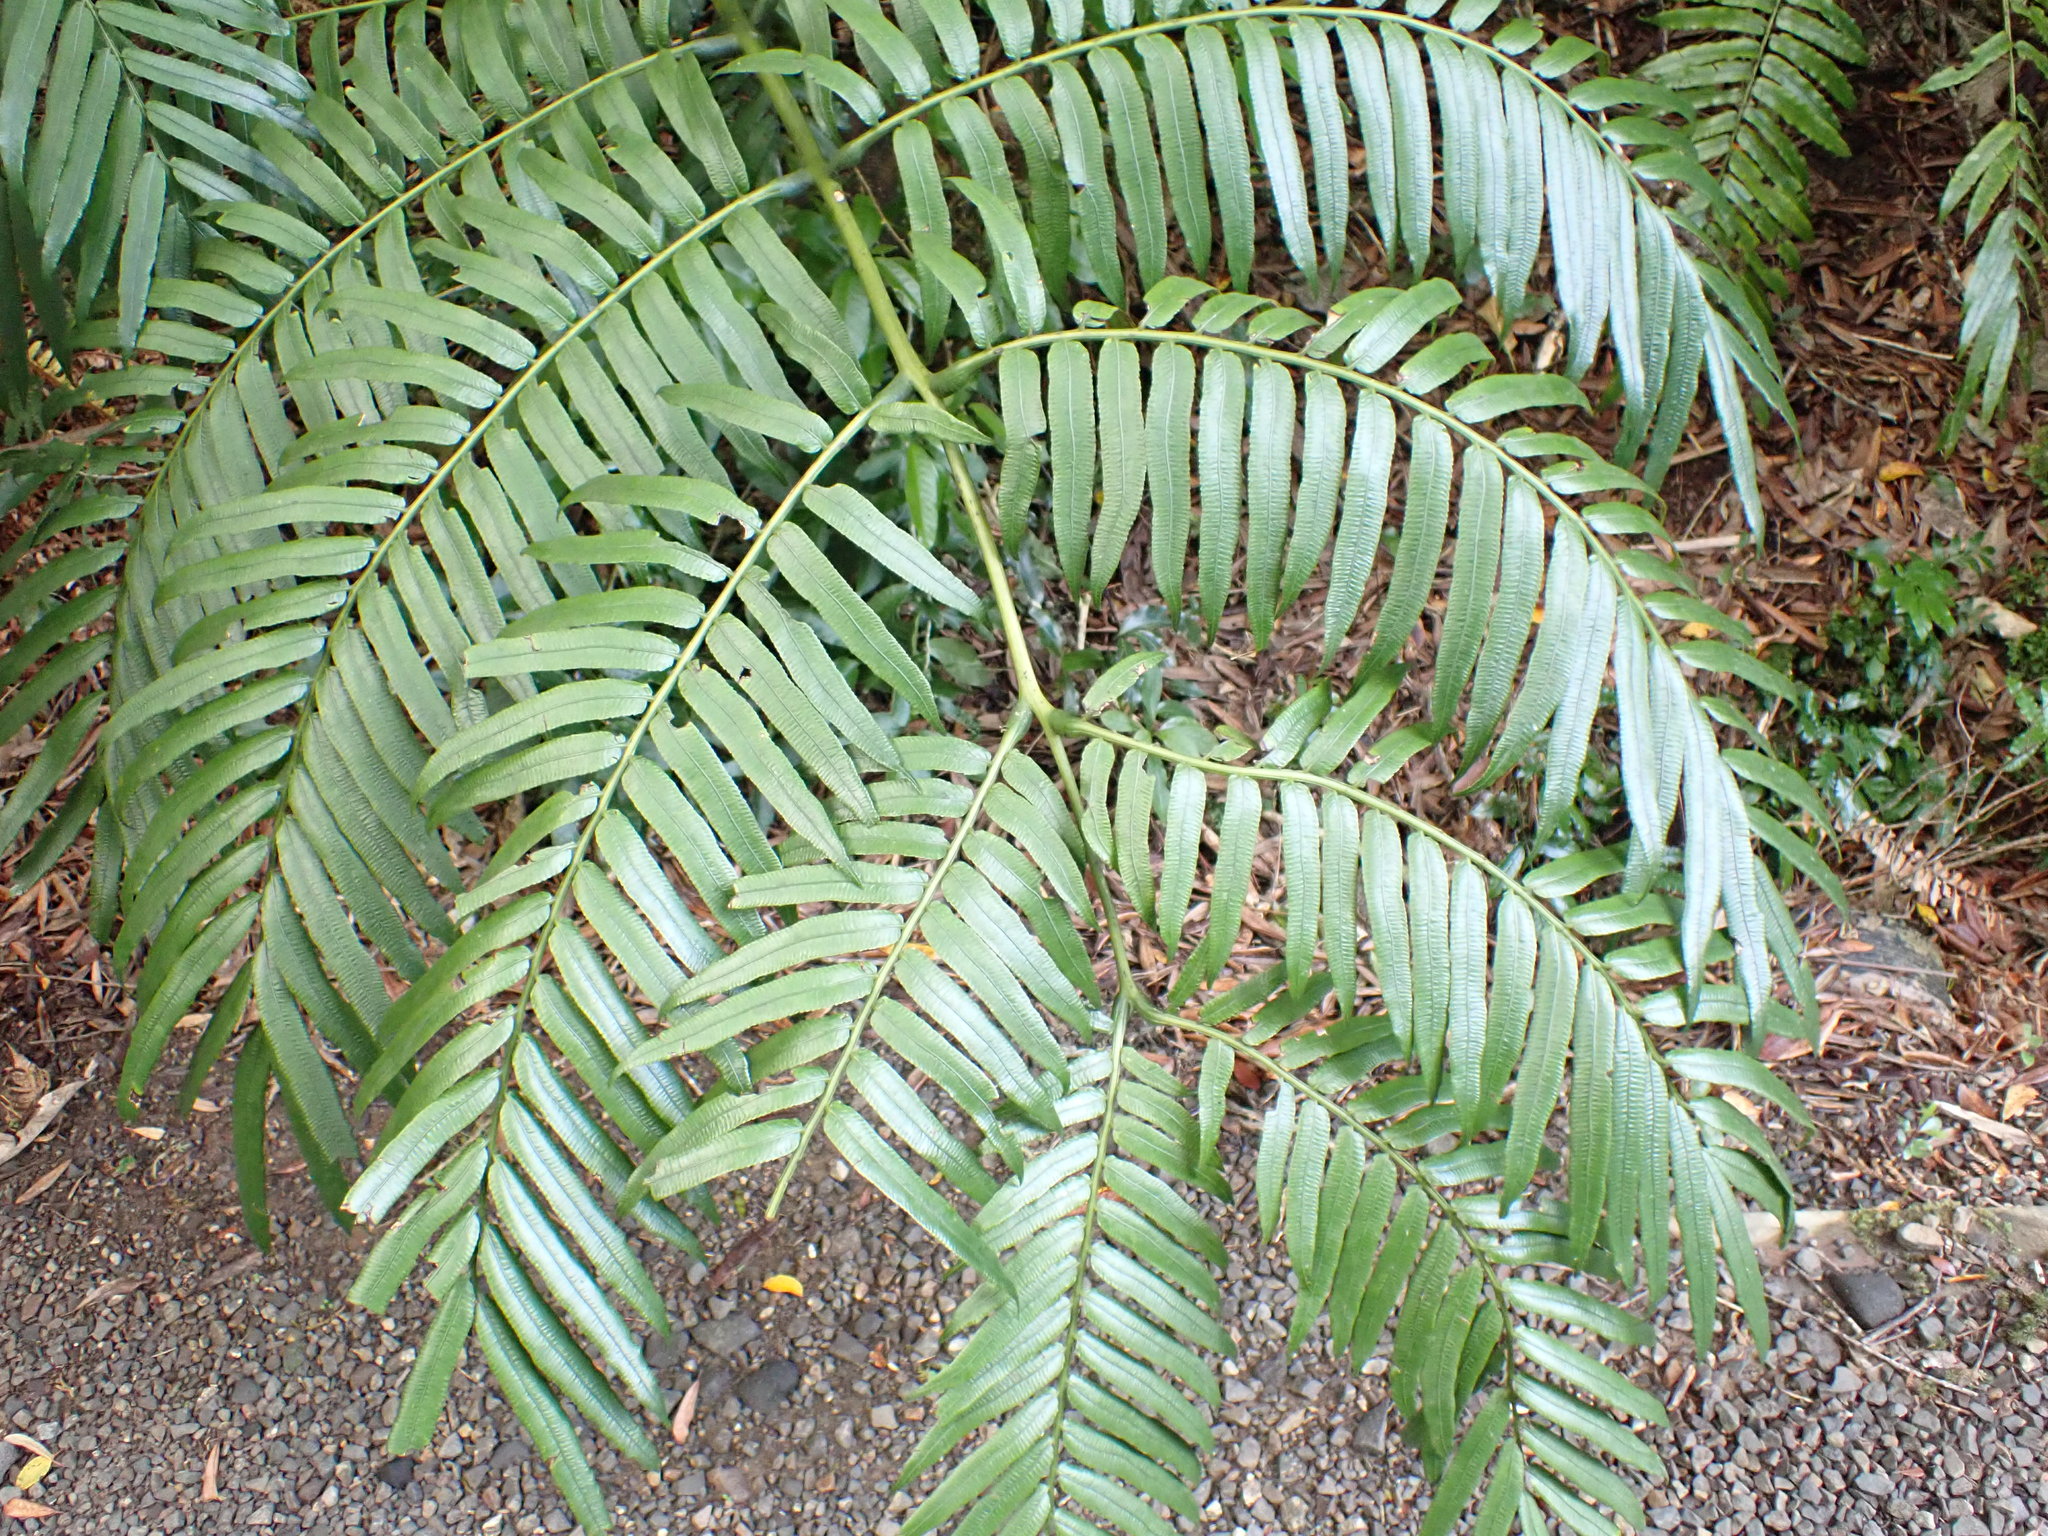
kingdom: Plantae
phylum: Tracheophyta
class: Polypodiopsida
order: Marattiales
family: Marattiaceae
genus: Ptisana
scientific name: Ptisana salicina
